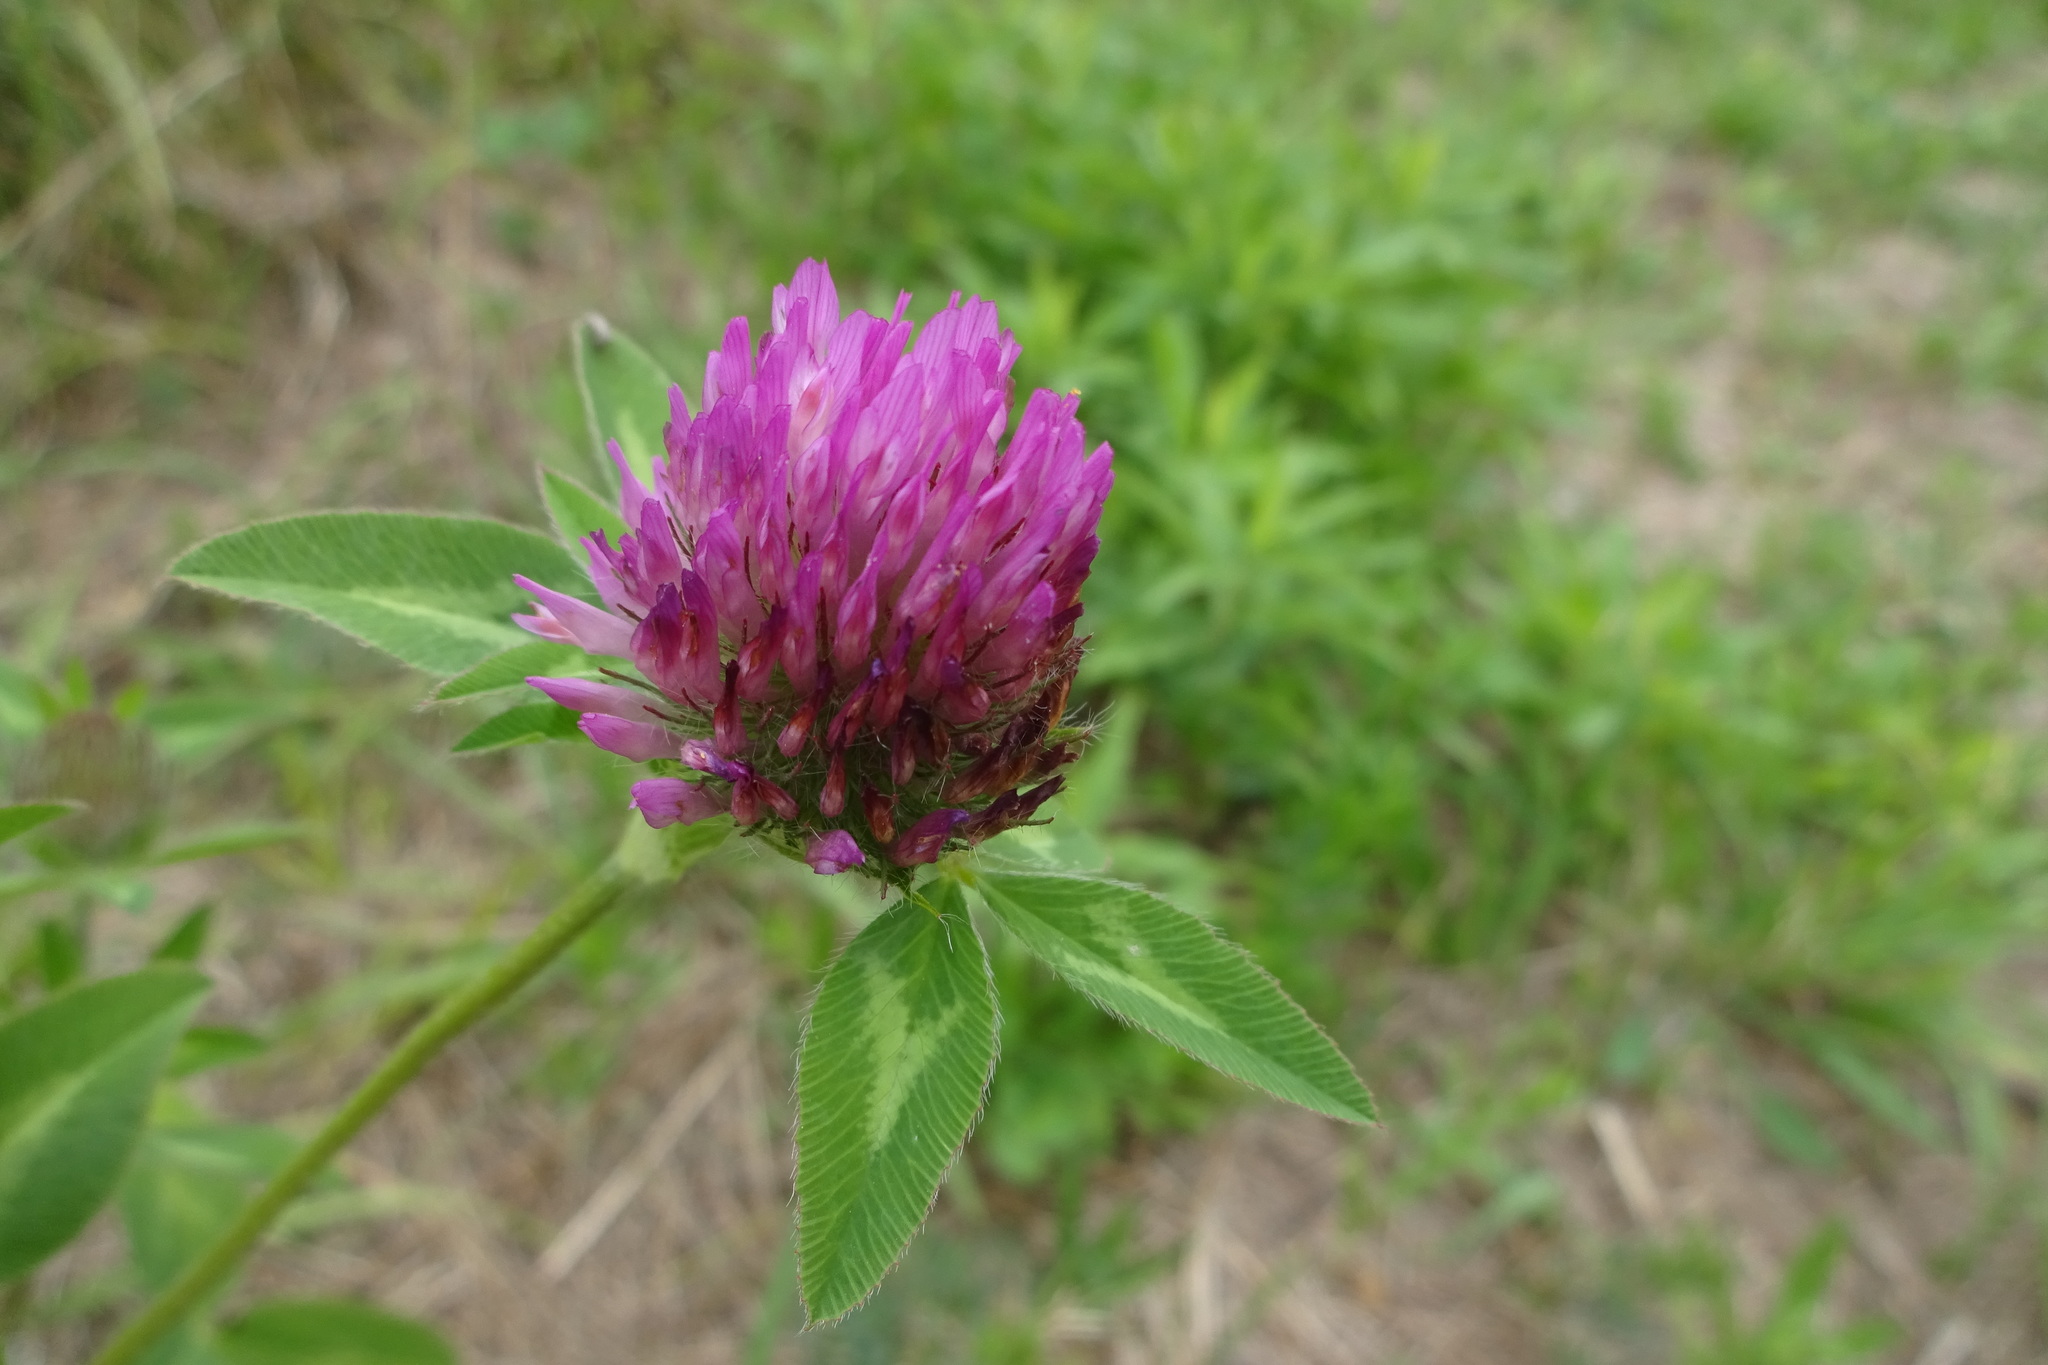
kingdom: Plantae
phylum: Tracheophyta
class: Magnoliopsida
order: Fabales
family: Fabaceae
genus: Trifolium
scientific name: Trifolium pratense
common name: Red clover
